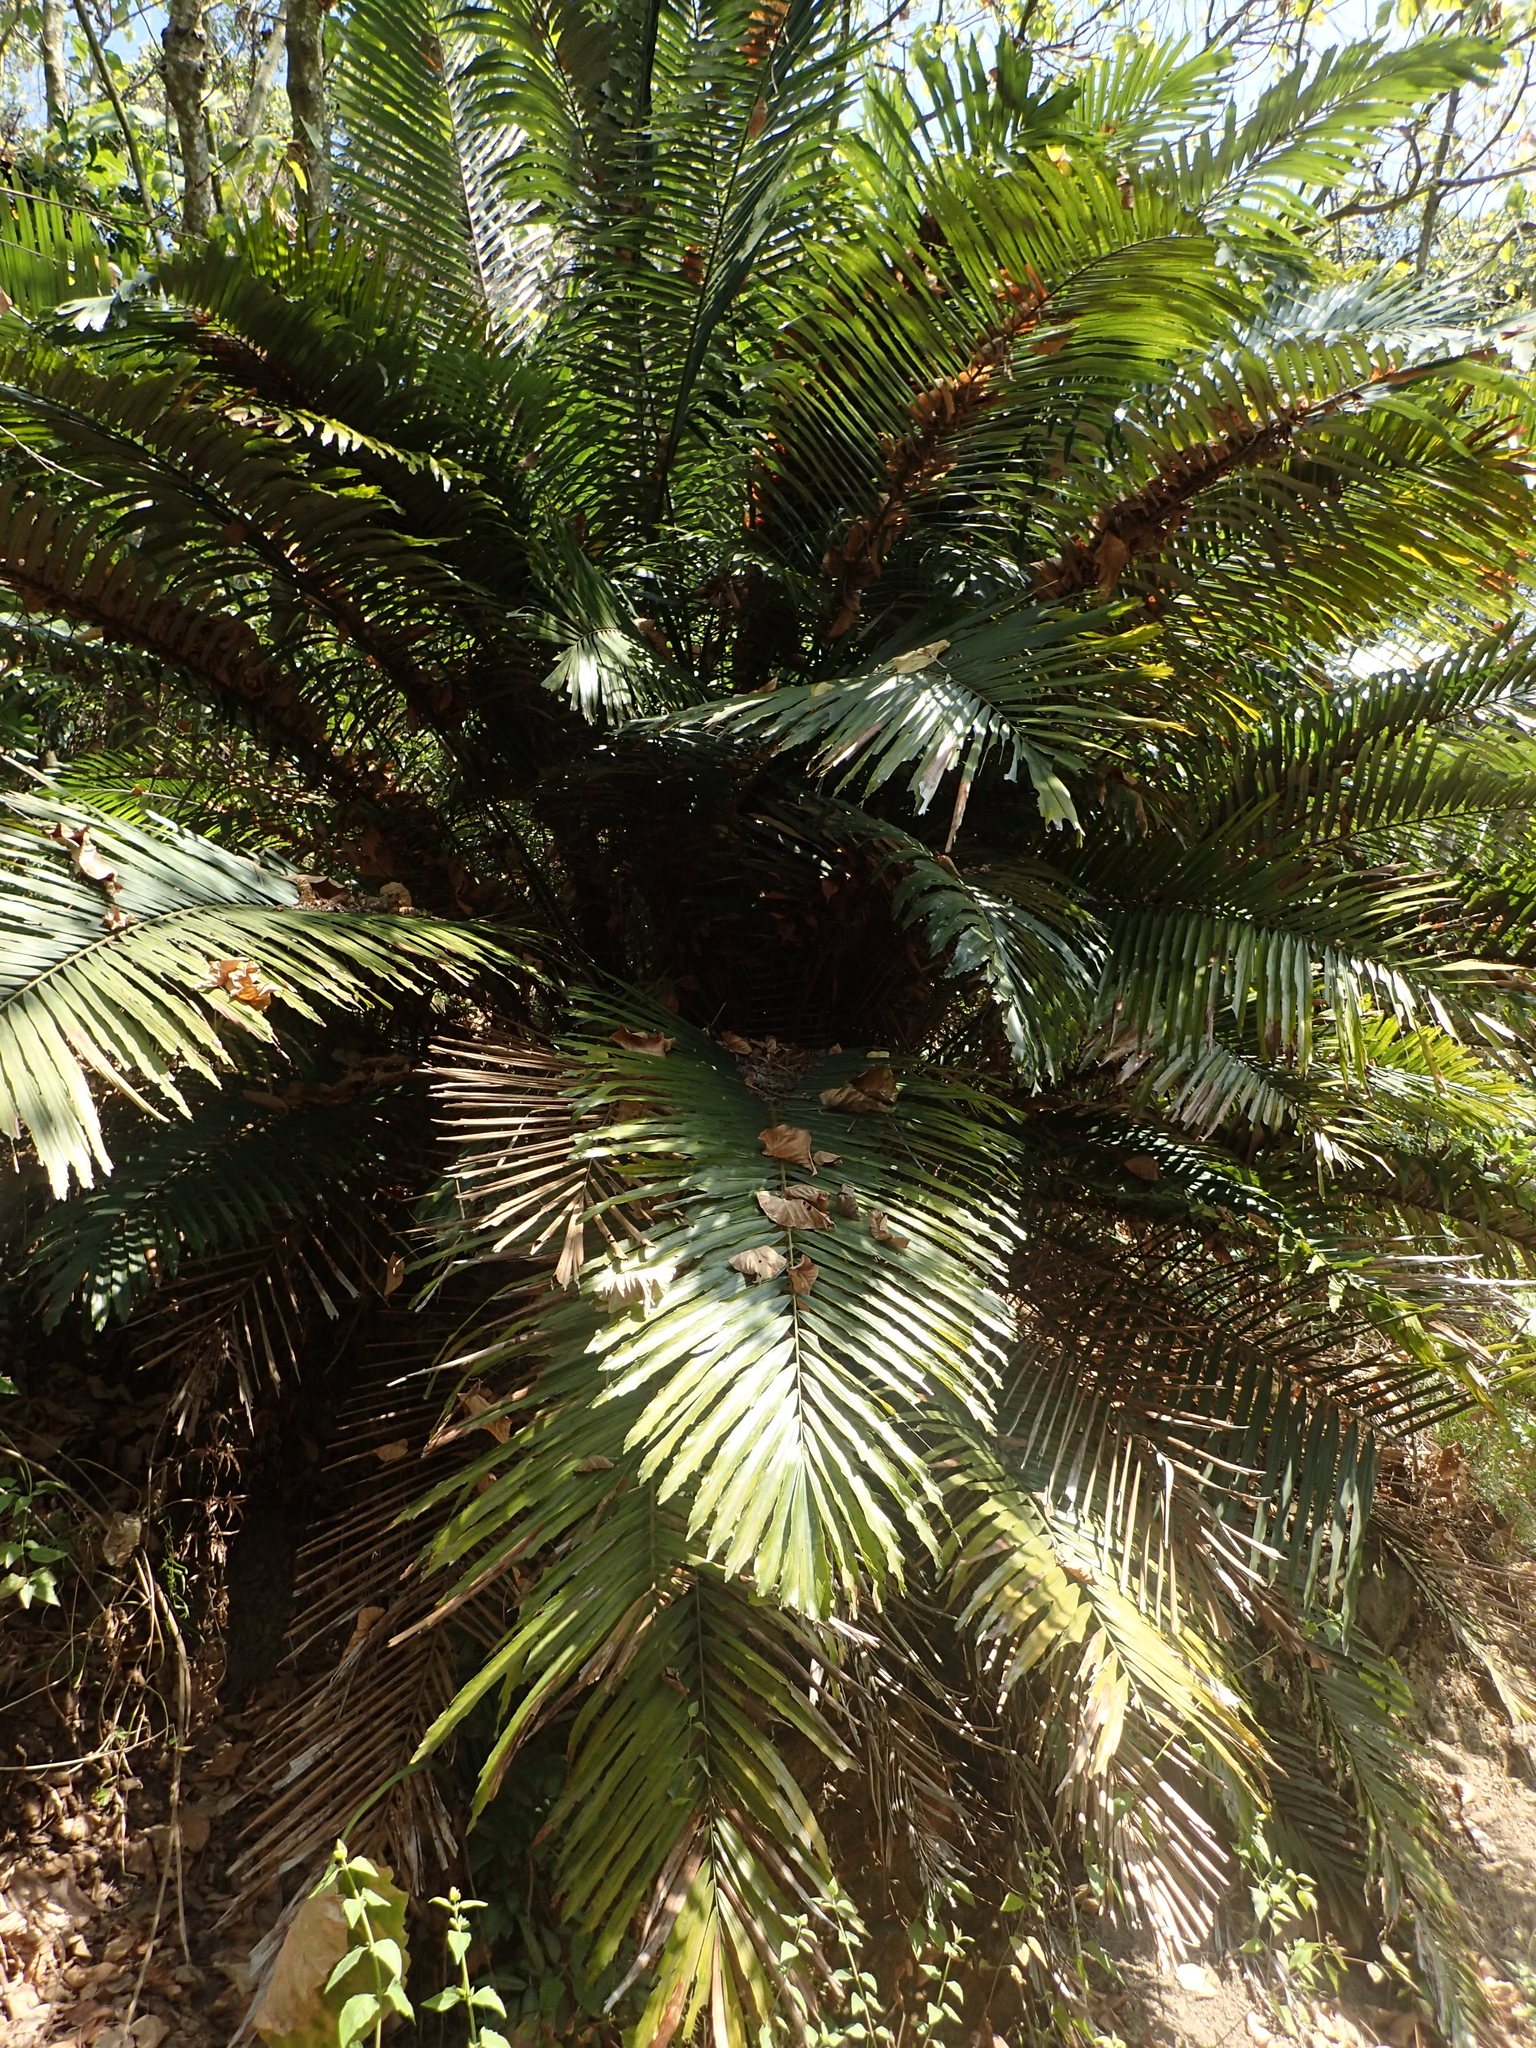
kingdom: Plantae
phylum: Tracheophyta
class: Liliopsida
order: Arecales
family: Arecaceae
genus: Arenga
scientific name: Arenga engleri
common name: Formosan sugar palm
